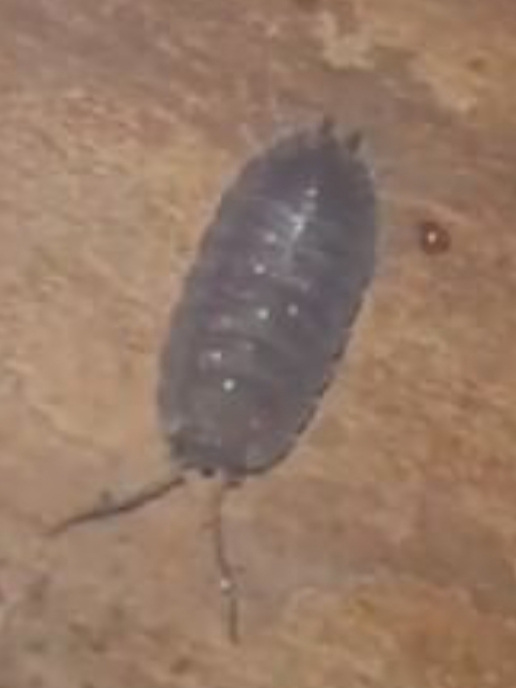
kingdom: Animalia
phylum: Arthropoda
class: Malacostraca
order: Isopoda
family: Porcellionidae
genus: Porcellio
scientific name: Porcellio scaber
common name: Common rough woodlouse
